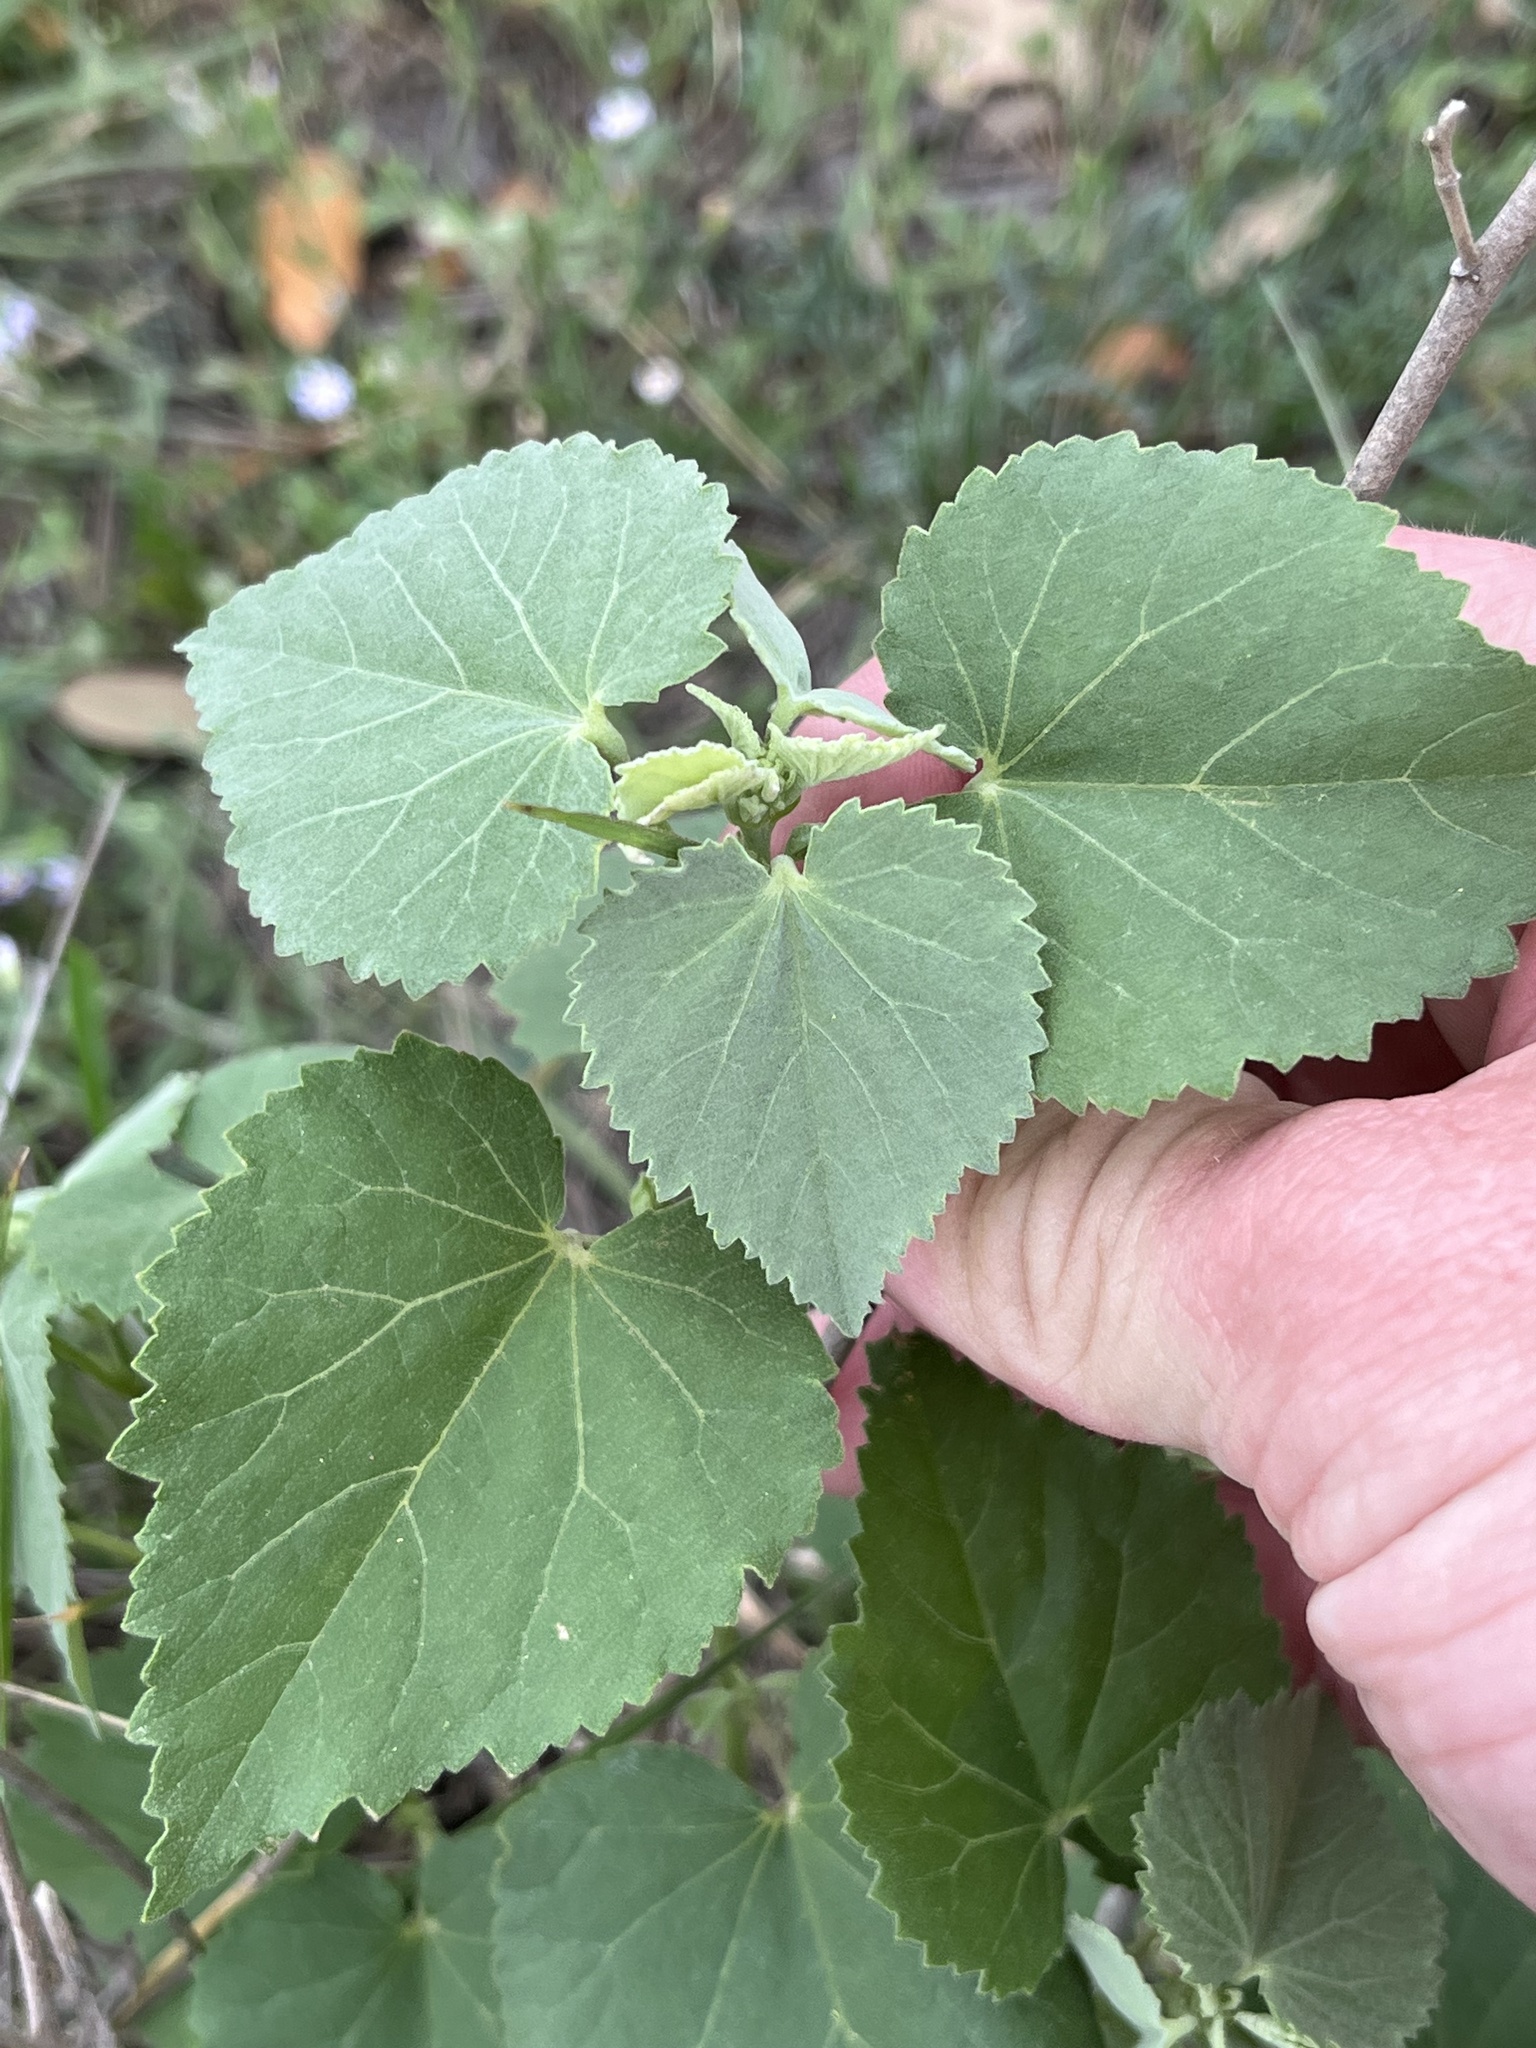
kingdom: Plantae
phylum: Tracheophyta
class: Magnoliopsida
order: Malvales
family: Malvaceae
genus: Abutilon
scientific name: Abutilon fruticosum
